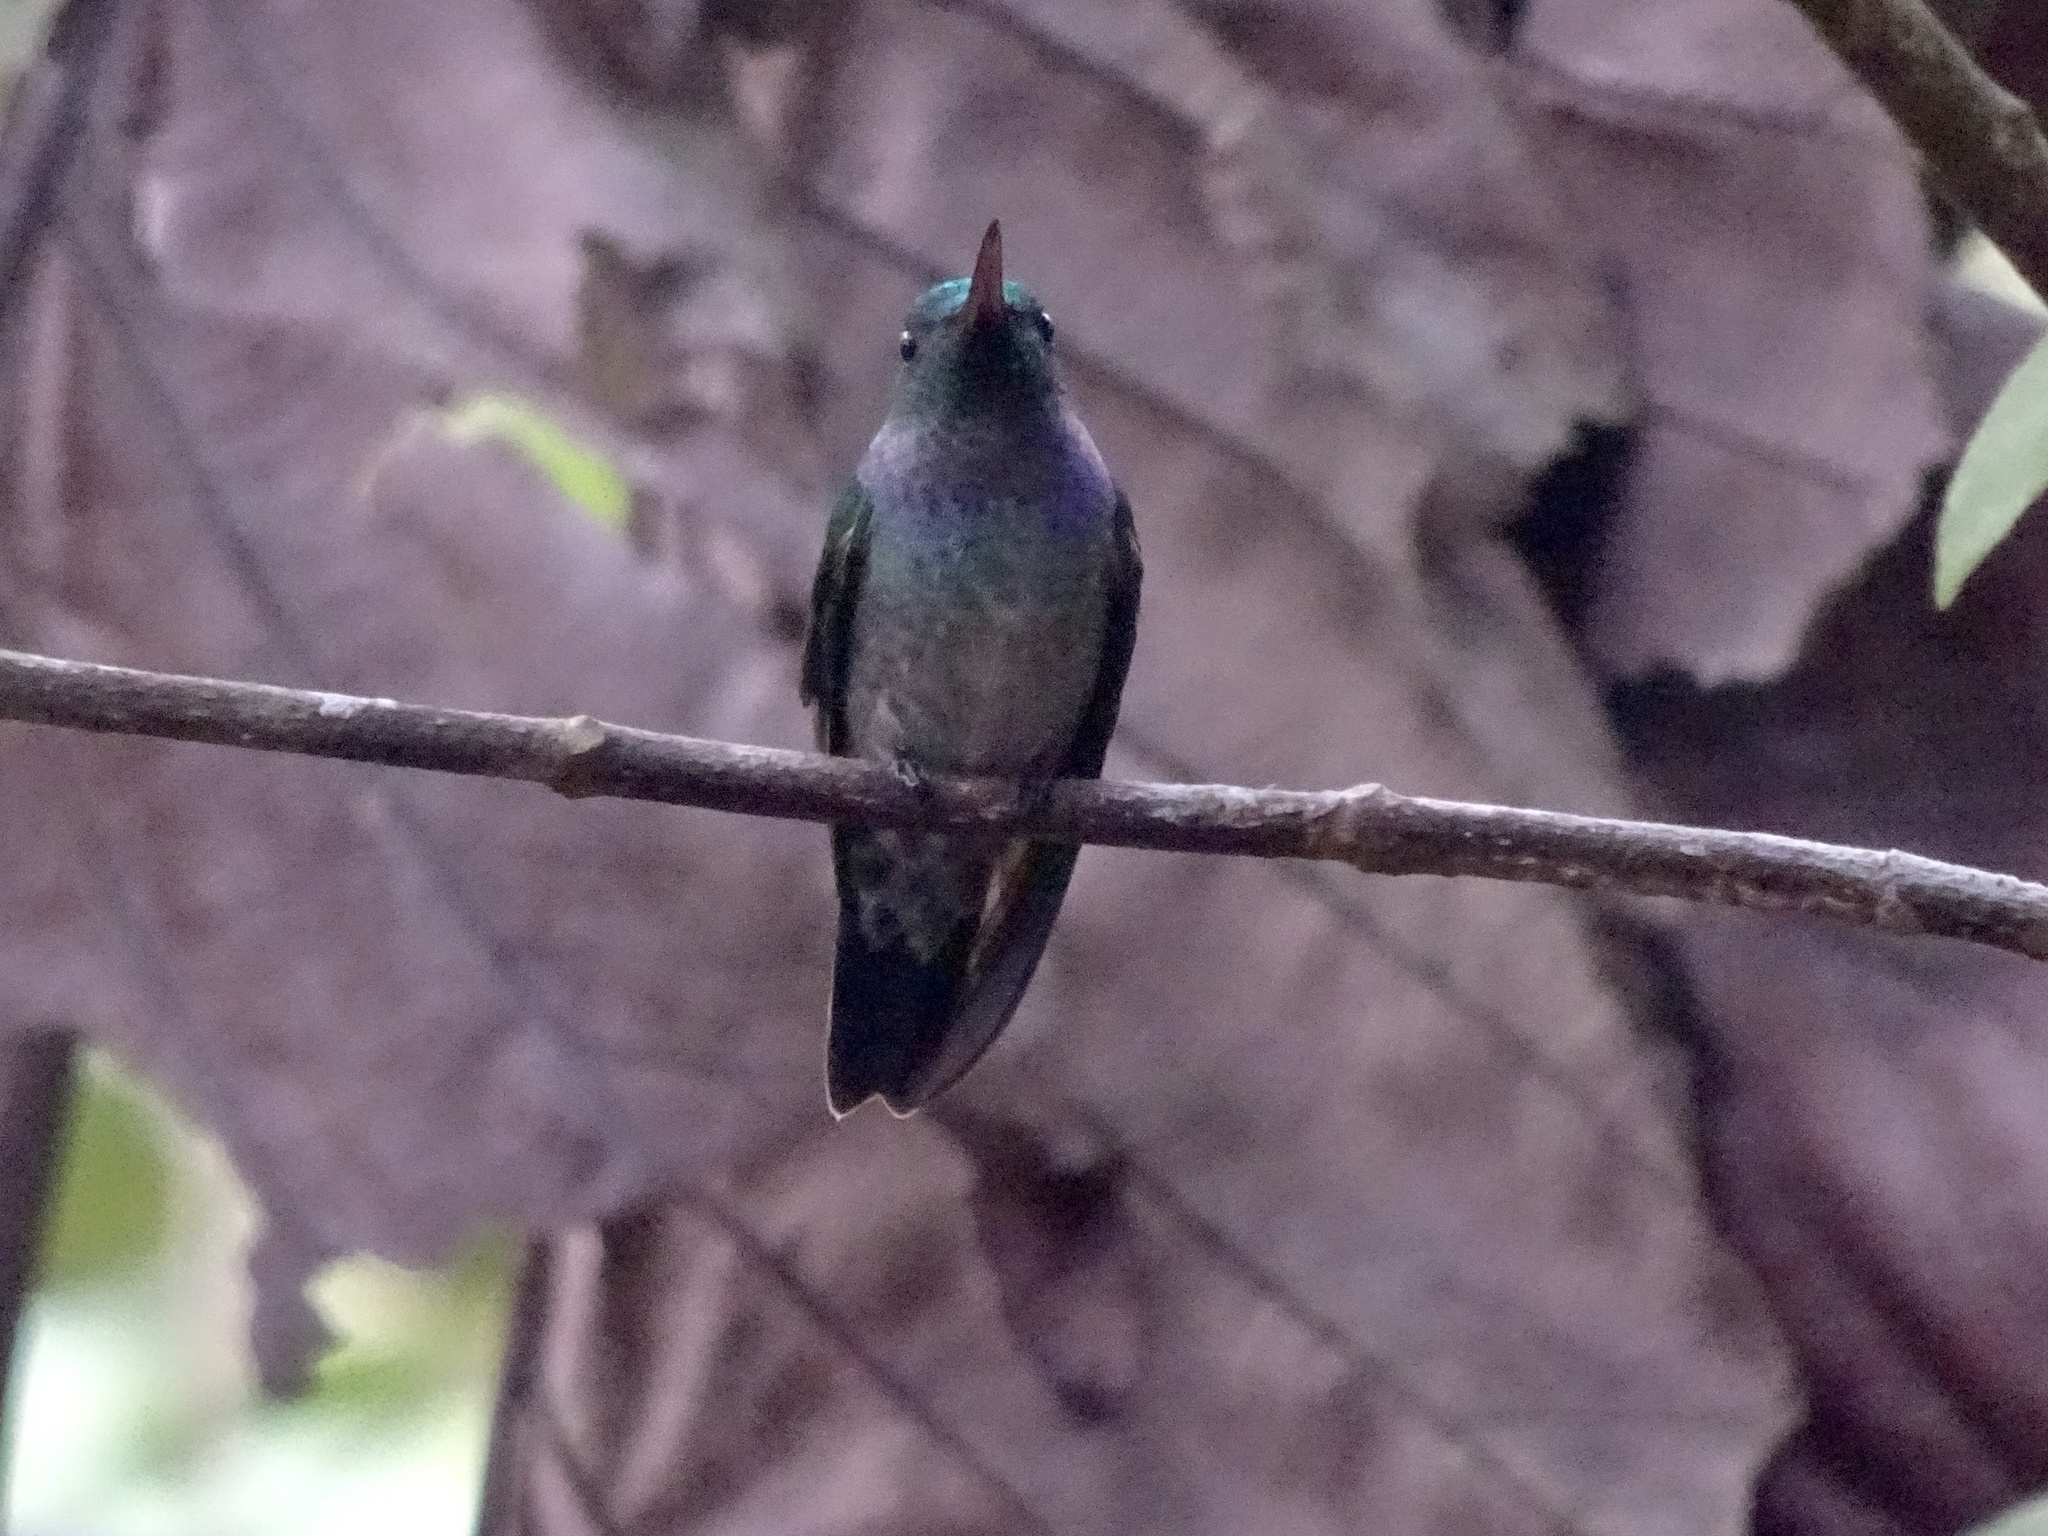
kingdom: Animalia
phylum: Chordata
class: Aves
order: Apodiformes
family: Trochilidae
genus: Polyerata
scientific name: Polyerata amabilis
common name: Blue-chested hummingbird
